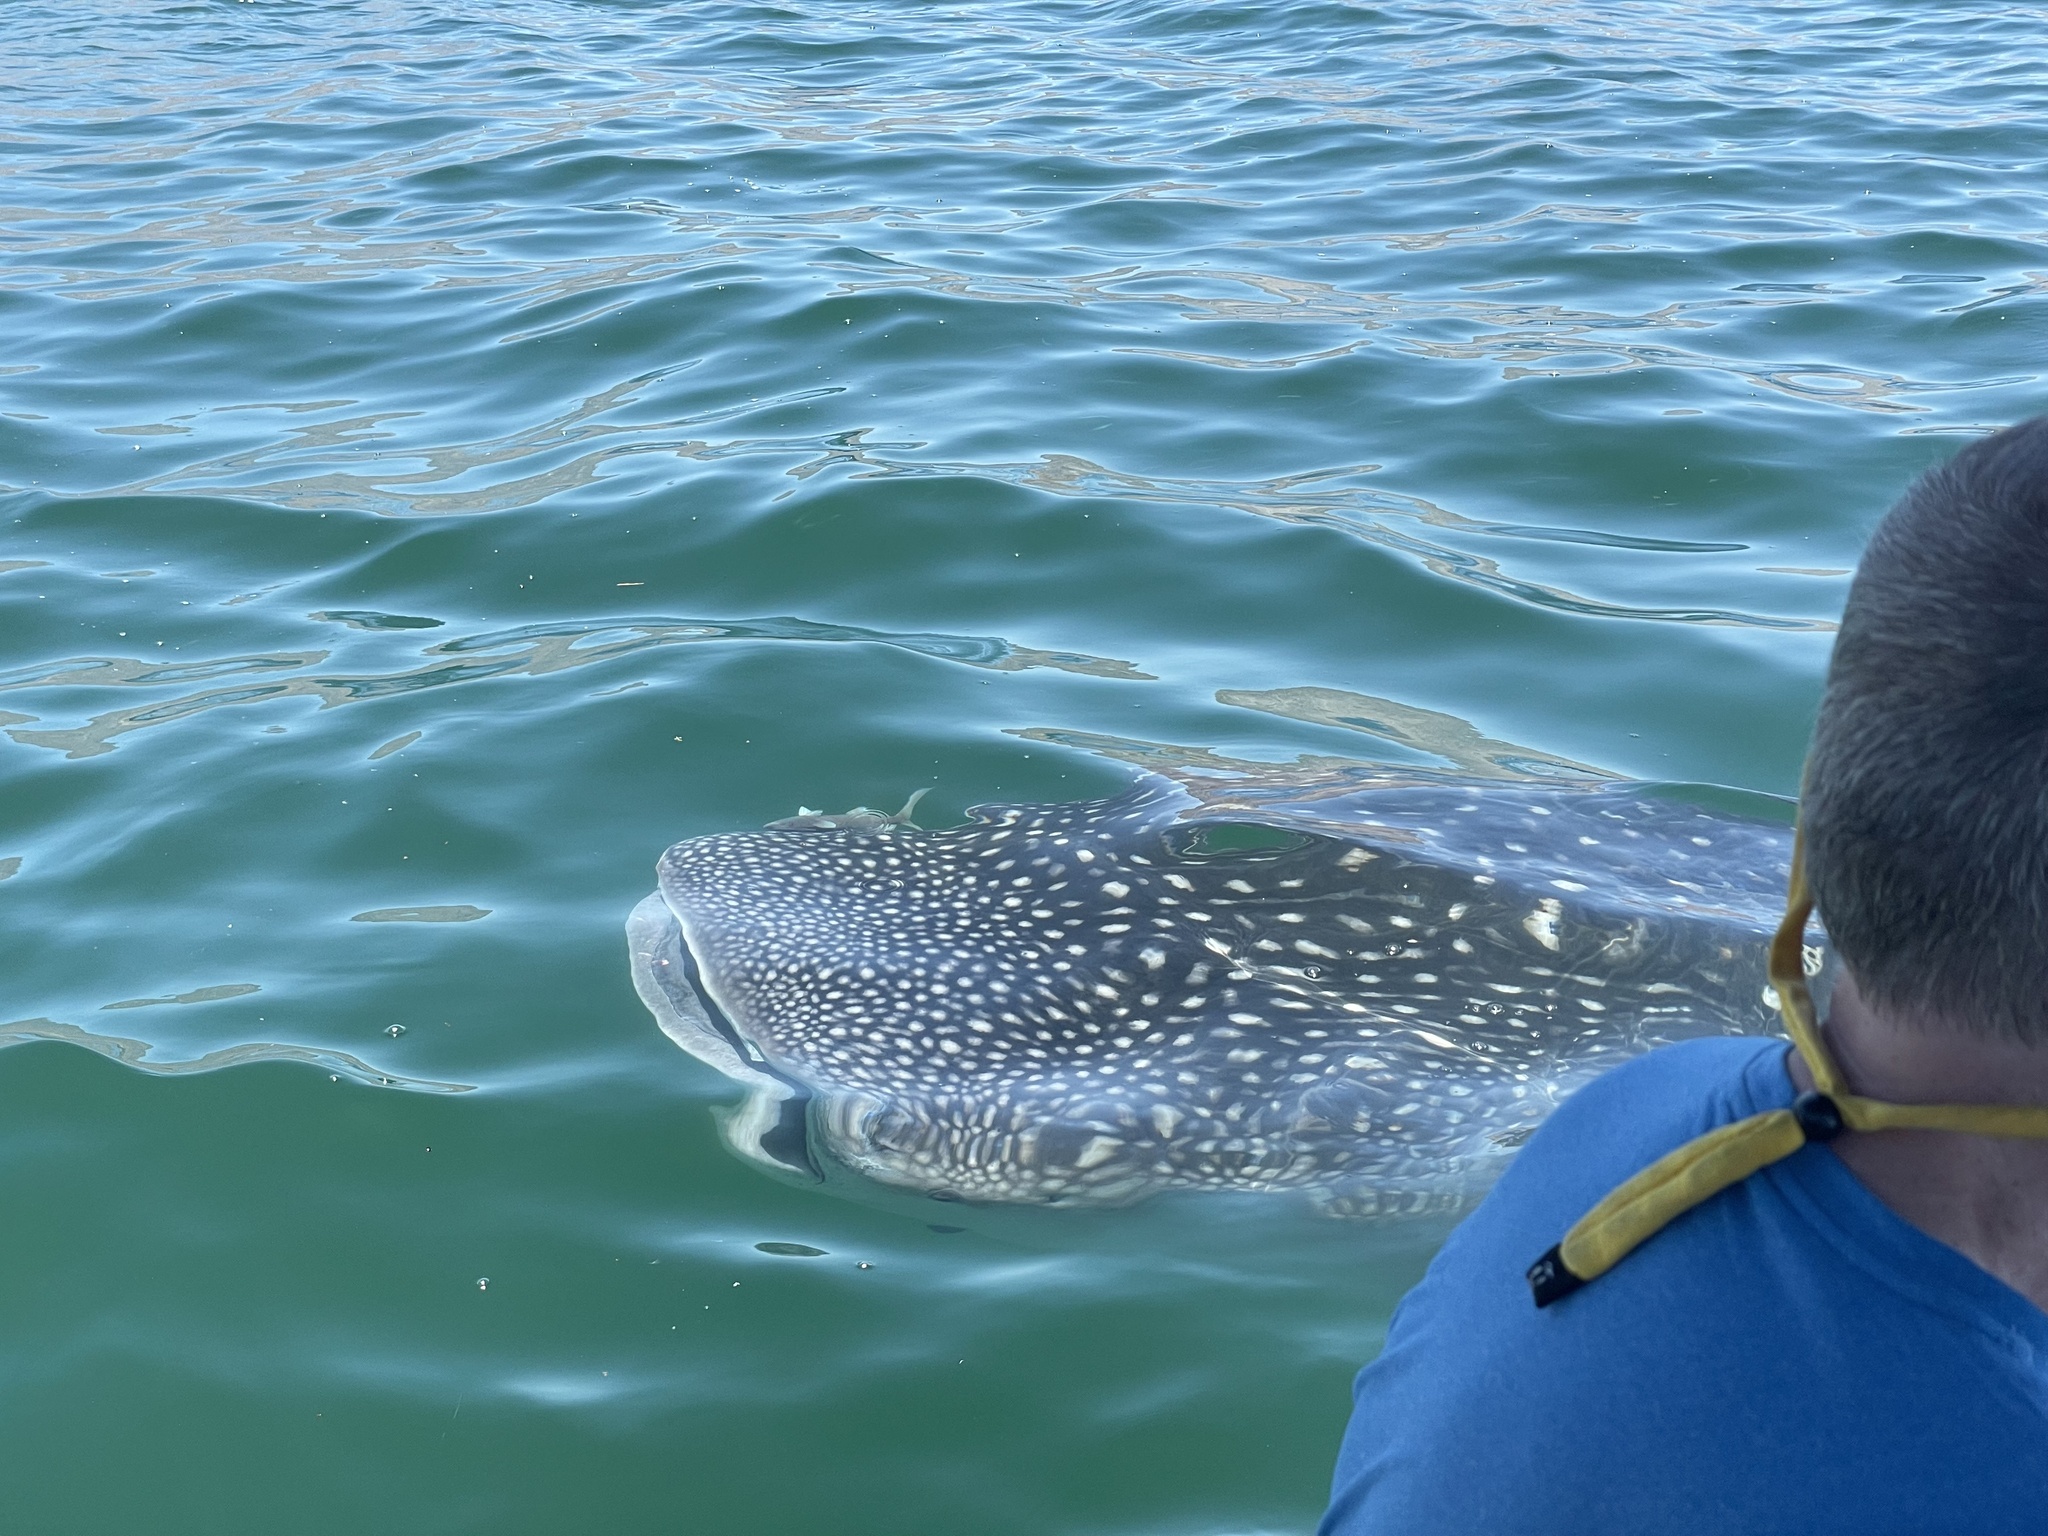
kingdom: Animalia
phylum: Chordata
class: Elasmobranchii
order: Orectolobiformes
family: Rhincodontidae
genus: Rhincodon
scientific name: Rhincodon typus
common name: Whale shark
